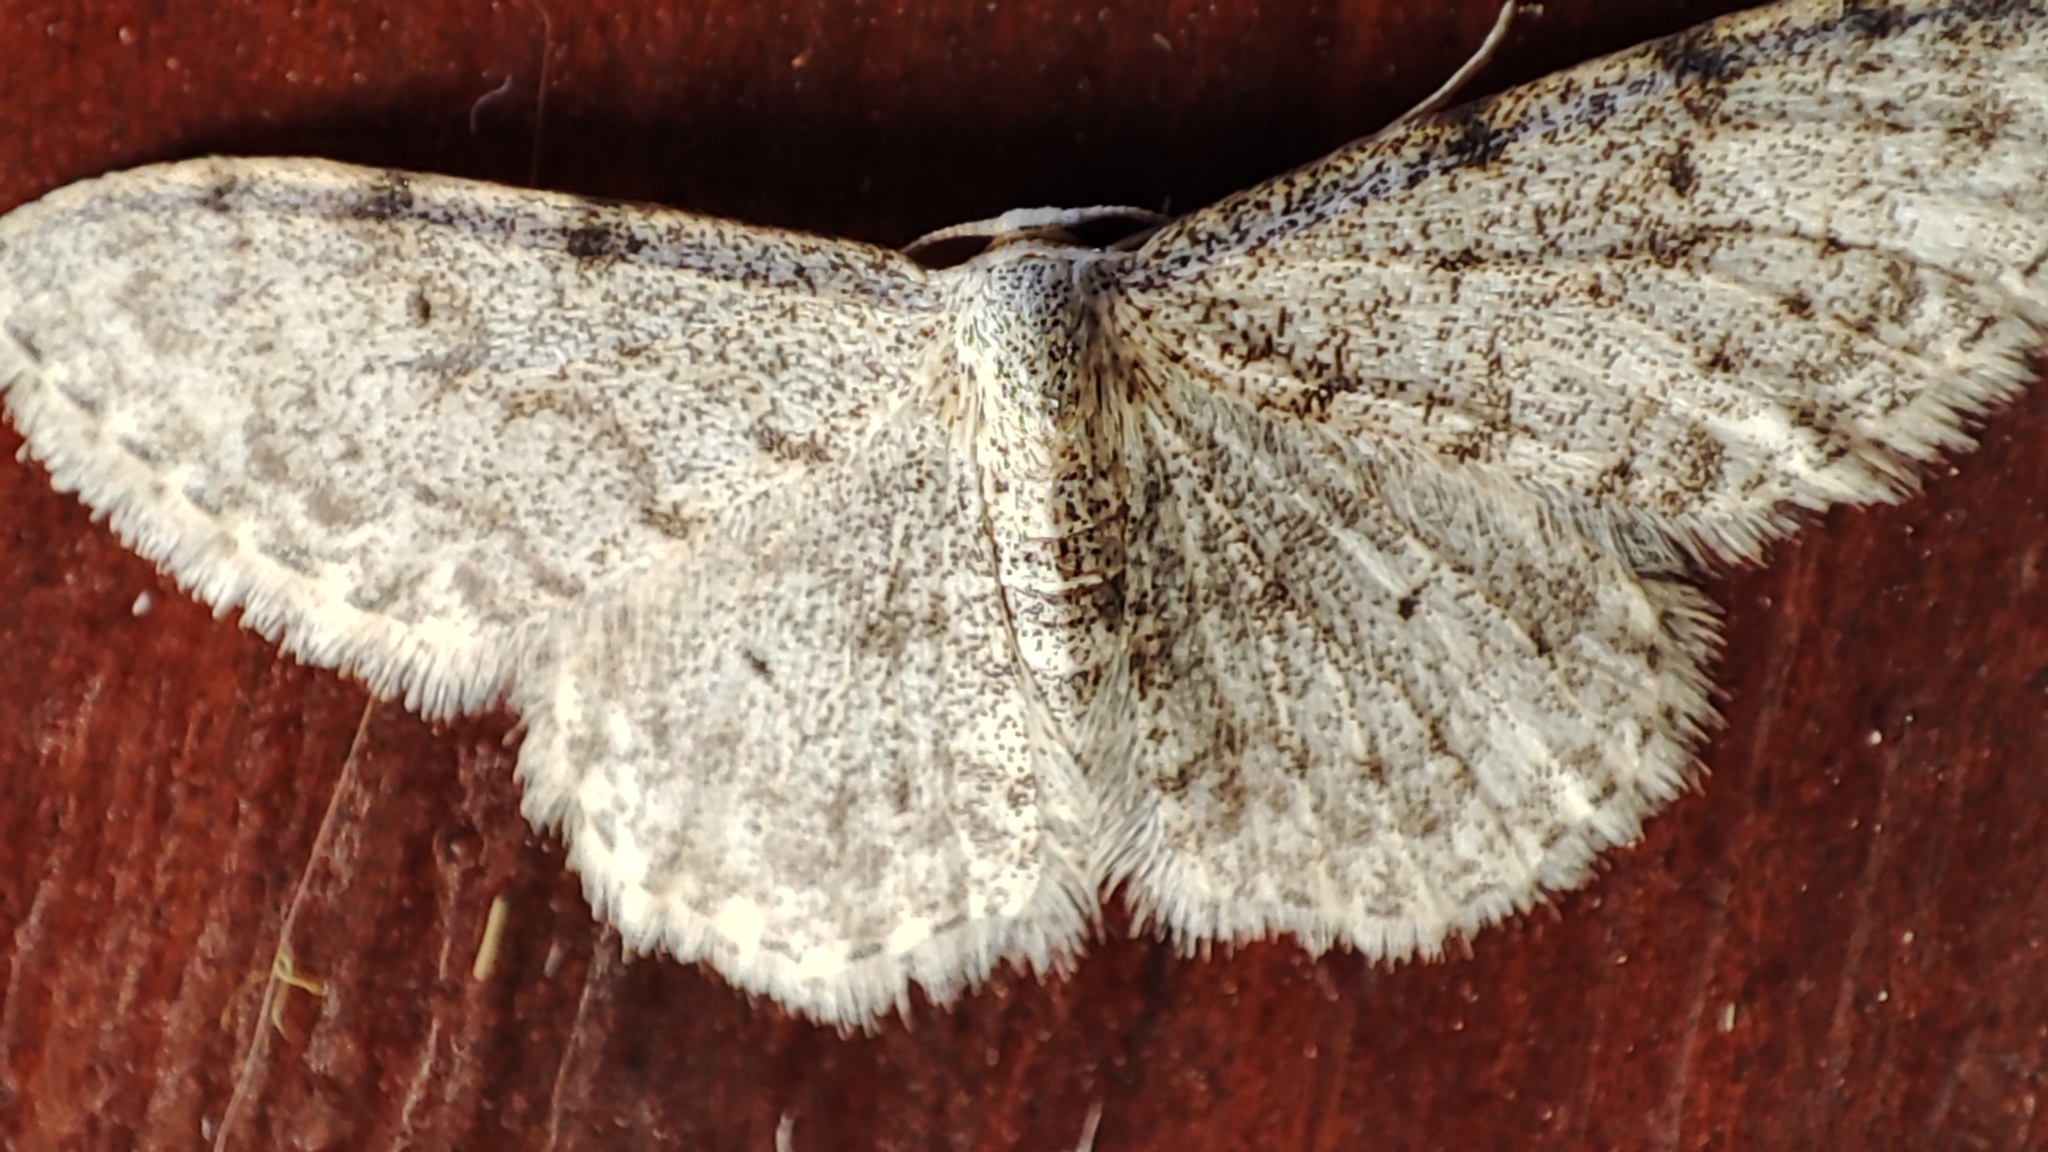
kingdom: Animalia
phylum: Arthropoda
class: Insecta
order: Lepidoptera
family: Geometridae
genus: Idaea
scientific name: Idaea camparia
